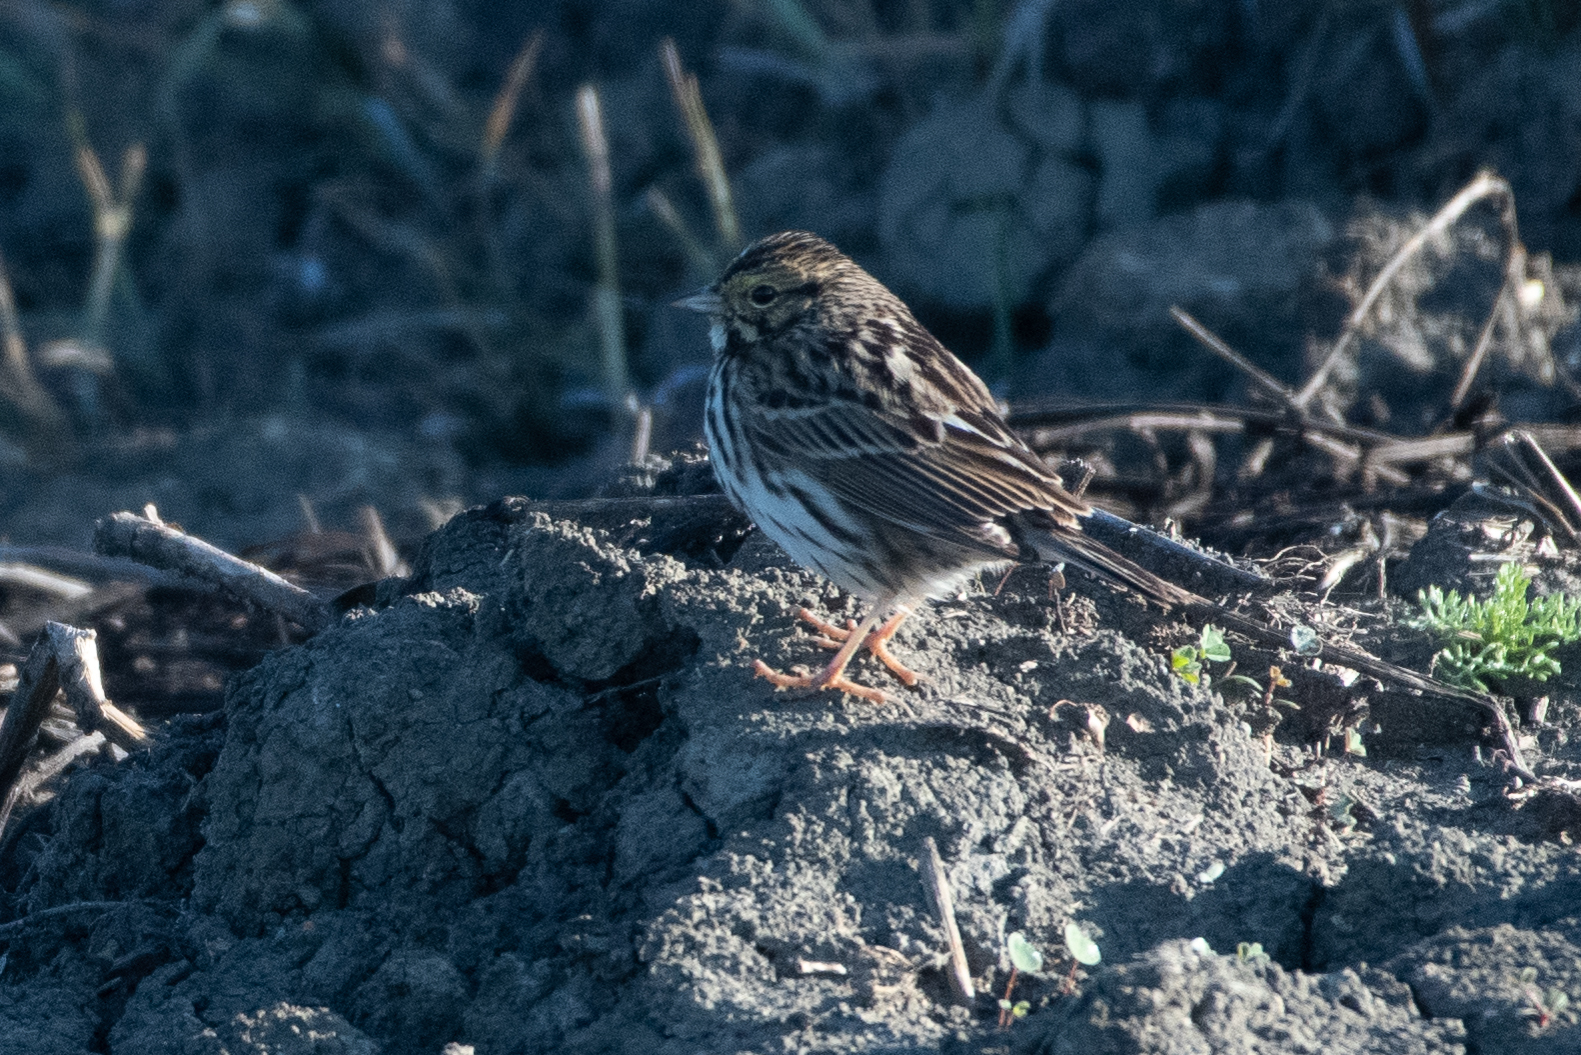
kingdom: Animalia
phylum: Chordata
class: Aves
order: Passeriformes
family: Passerellidae
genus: Passerculus
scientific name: Passerculus sandwichensis
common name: Savannah sparrow
